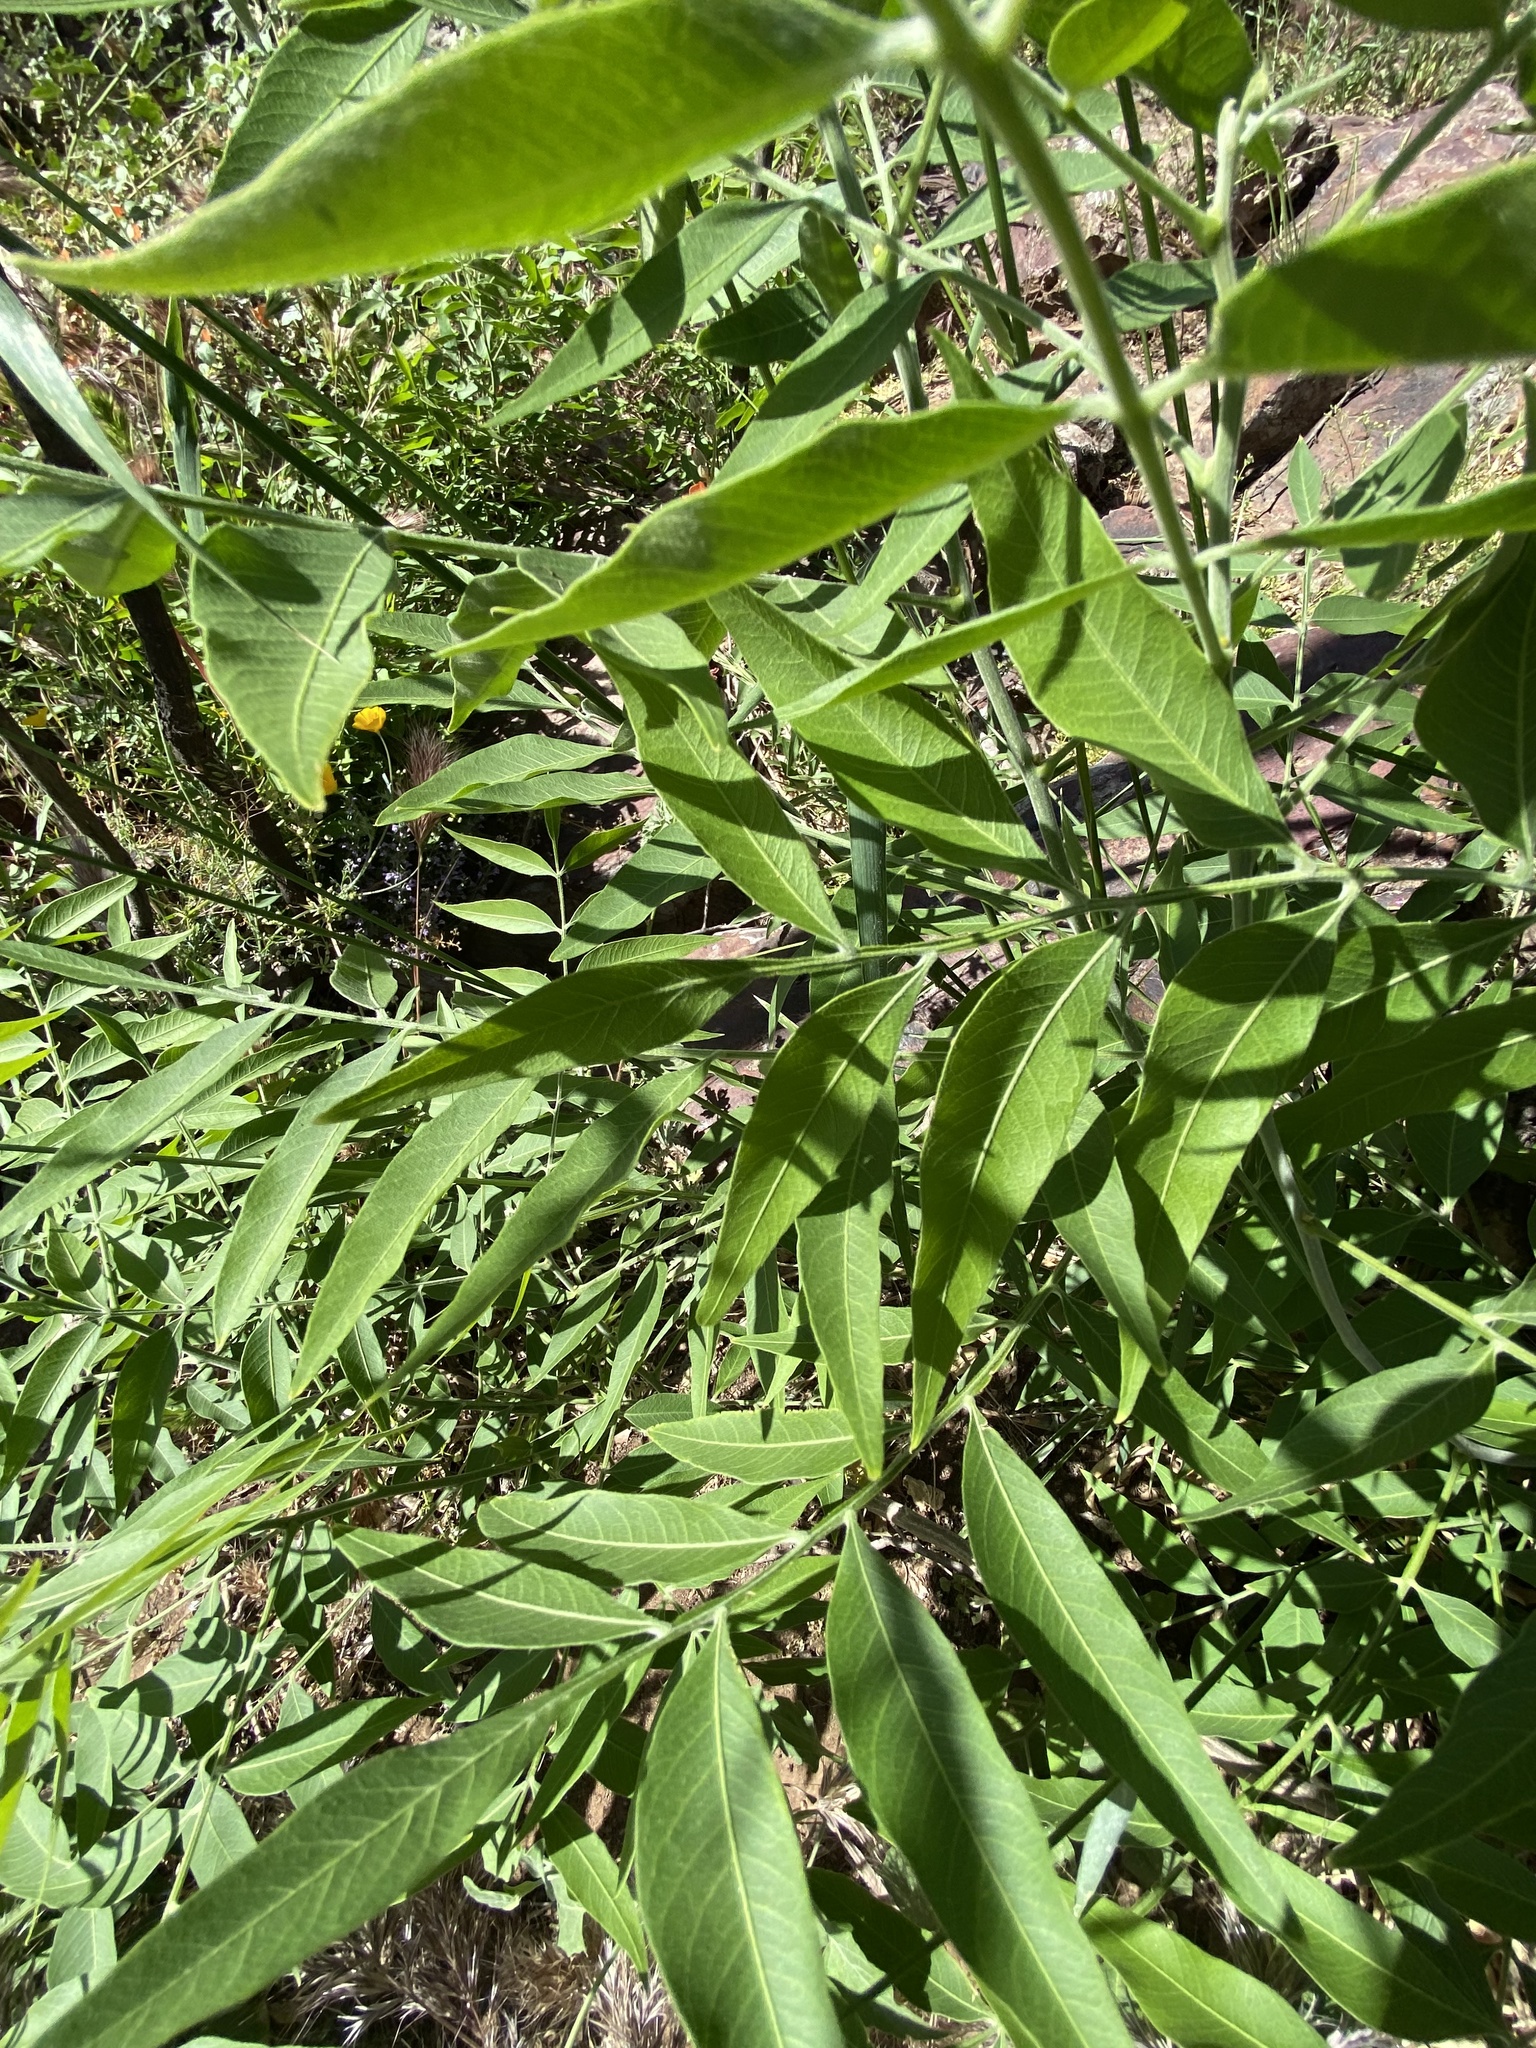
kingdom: Plantae
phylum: Tracheophyta
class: Magnoliopsida
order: Sapindales
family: Sapindaceae
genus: Sapindus
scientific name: Sapindus drummondii
